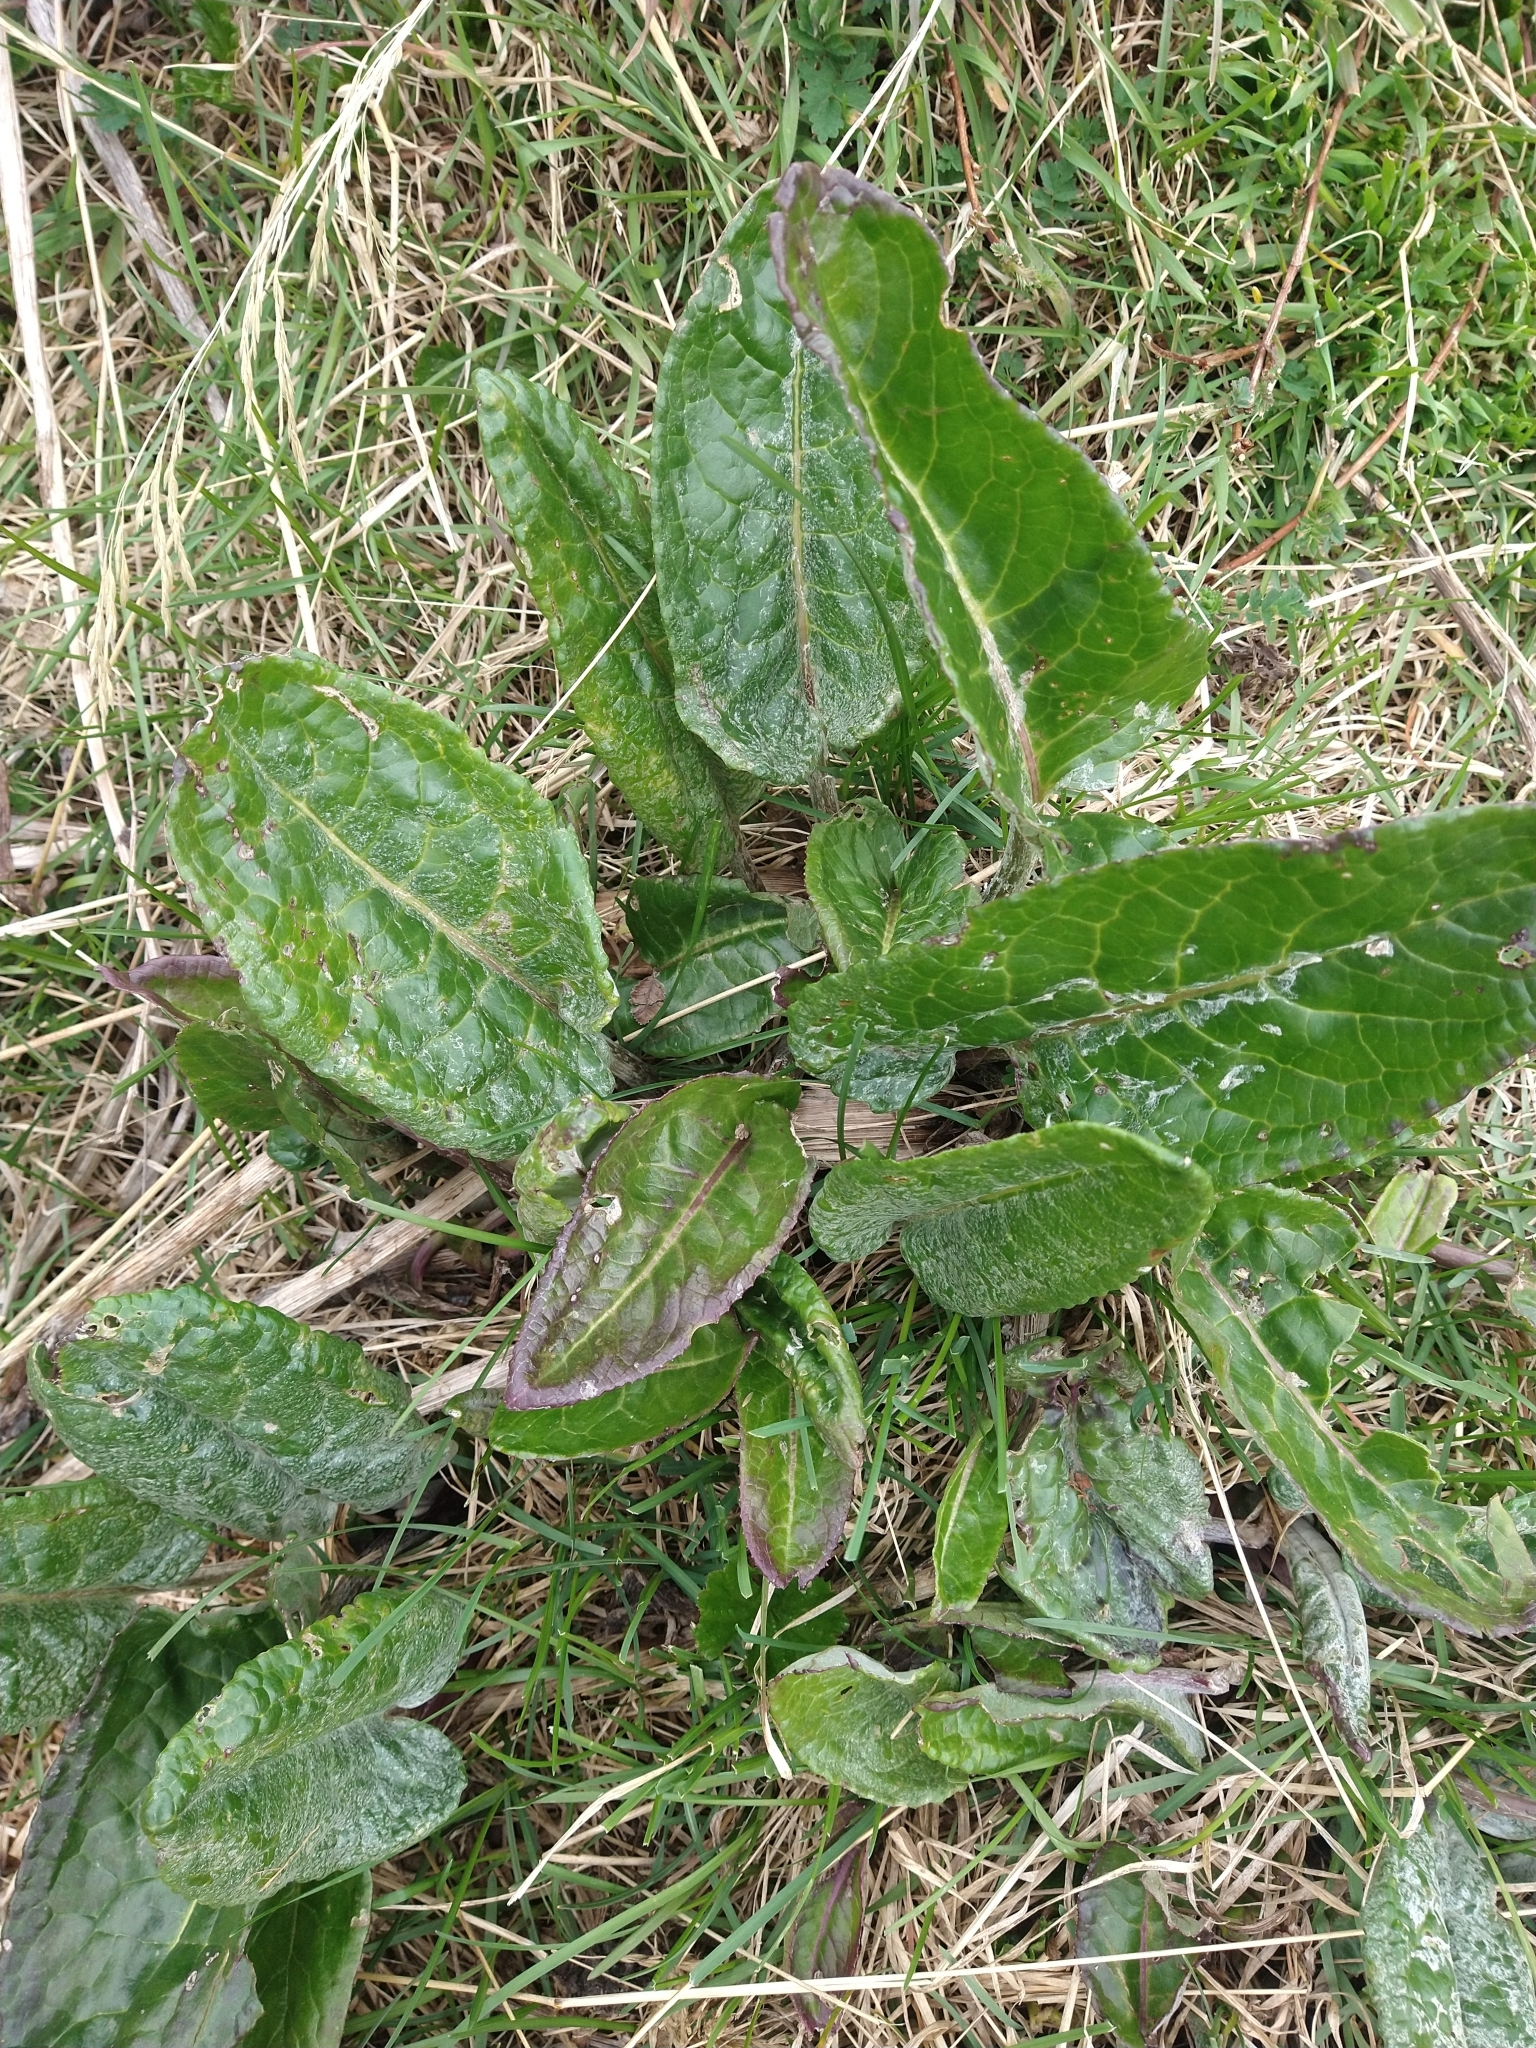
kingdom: Plantae
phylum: Tracheophyta
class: Magnoliopsida
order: Asterales
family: Asteraceae
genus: Senecio
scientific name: Senecio smithii
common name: Magellan ragwort
